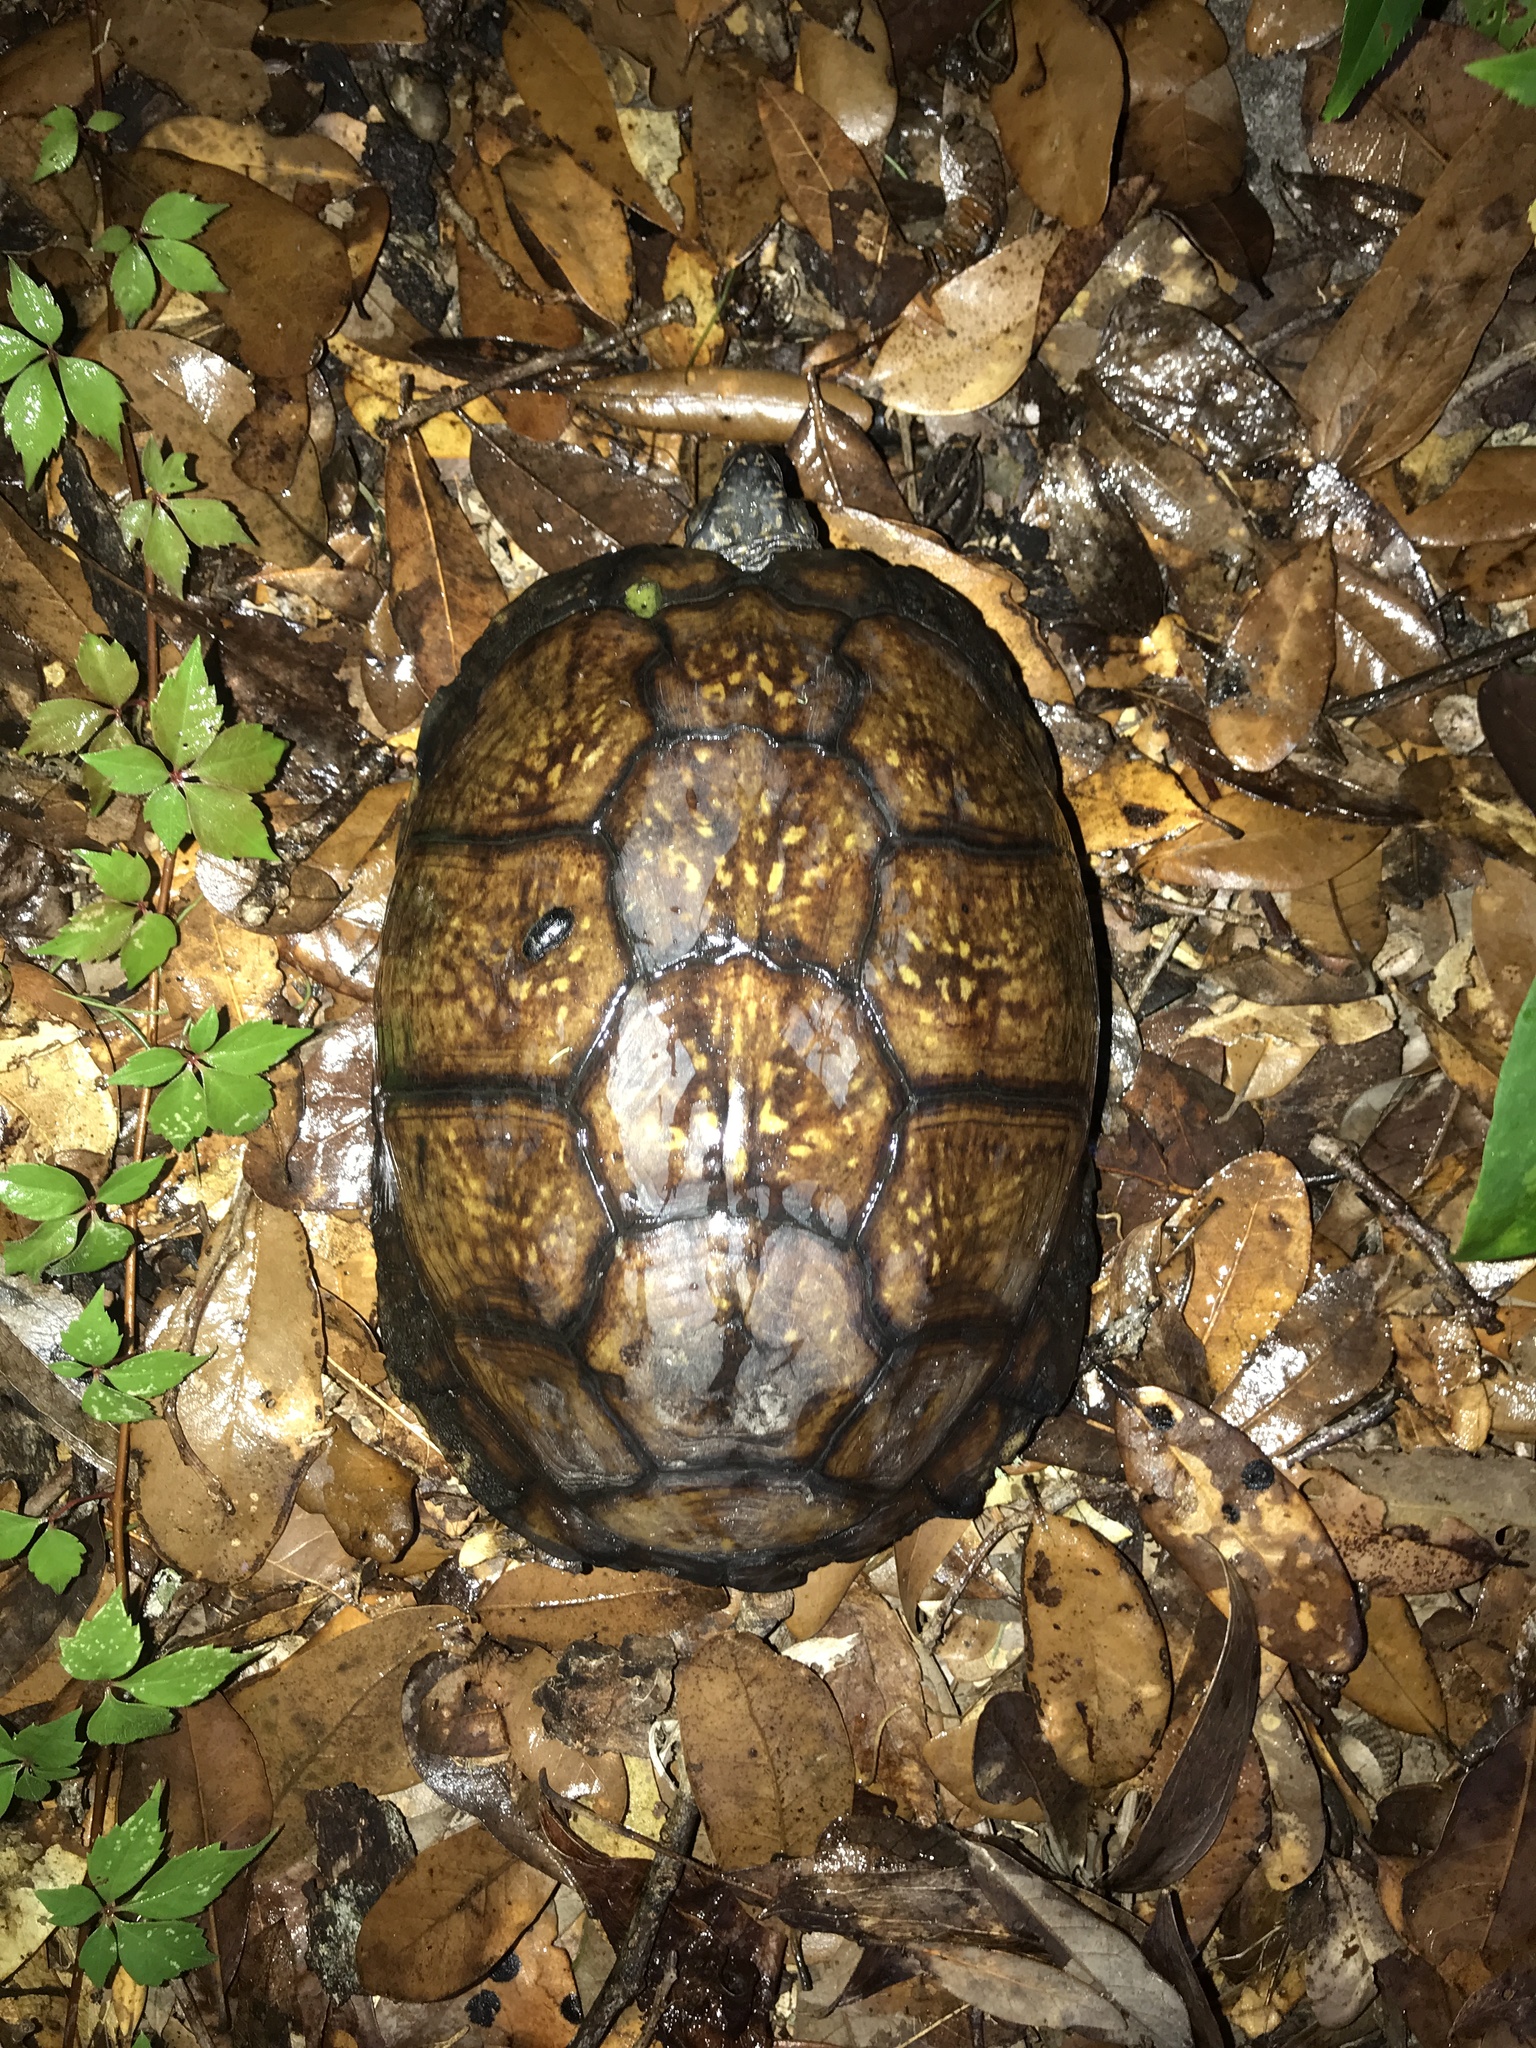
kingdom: Animalia
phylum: Chordata
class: Testudines
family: Emydidae
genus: Terrapene
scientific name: Terrapene carolina
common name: Common box turtle
